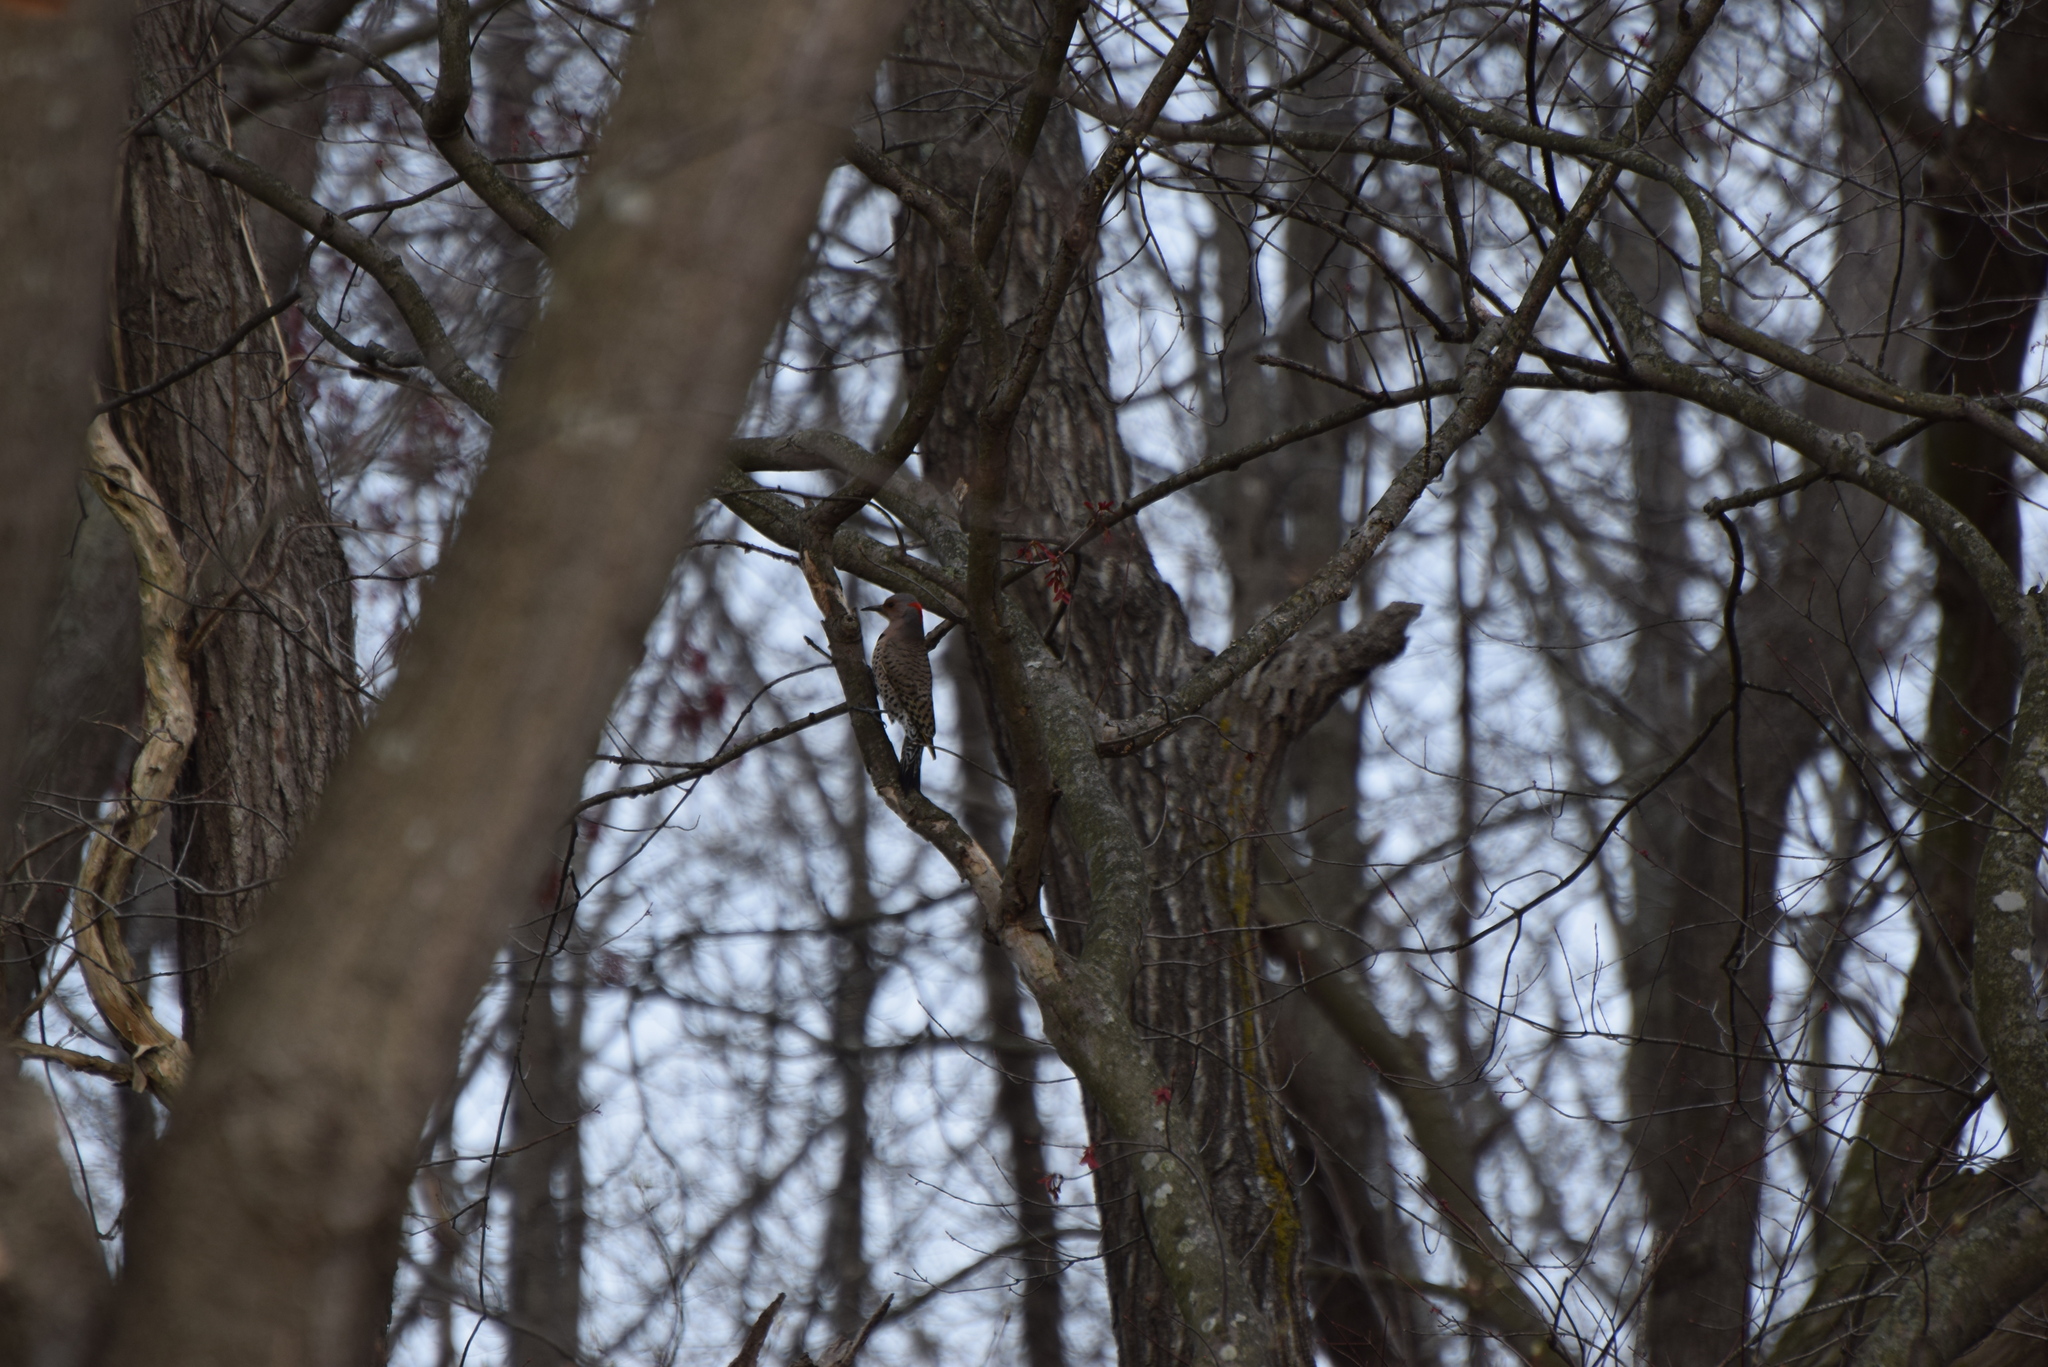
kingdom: Animalia
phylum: Chordata
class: Aves
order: Piciformes
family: Picidae
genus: Colaptes
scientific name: Colaptes auratus
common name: Northern flicker
